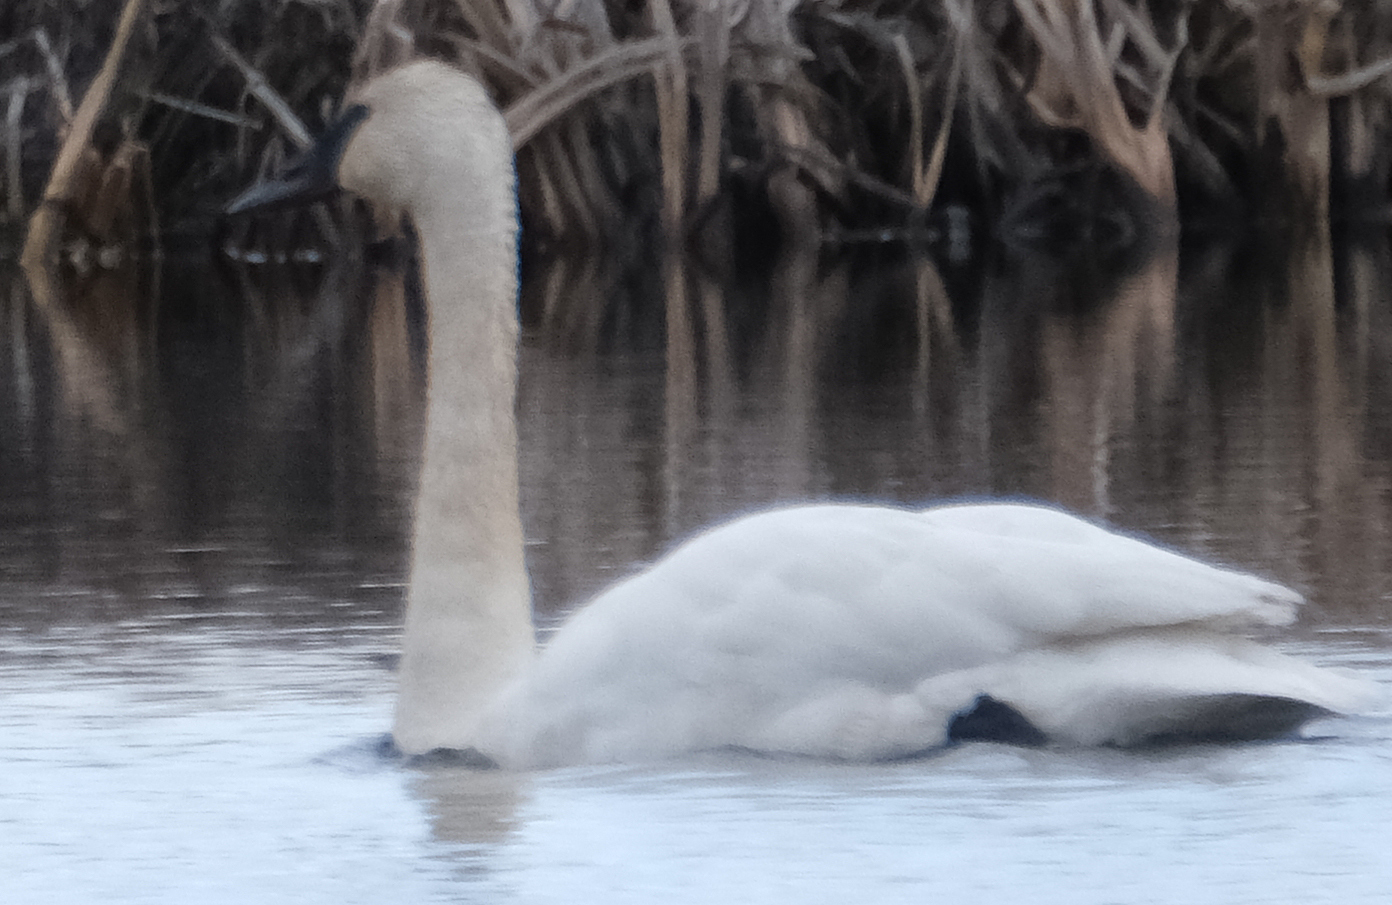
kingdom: Animalia
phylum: Chordata
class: Aves
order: Anseriformes
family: Anatidae
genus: Cygnus
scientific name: Cygnus buccinator
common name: Trumpeter swan
